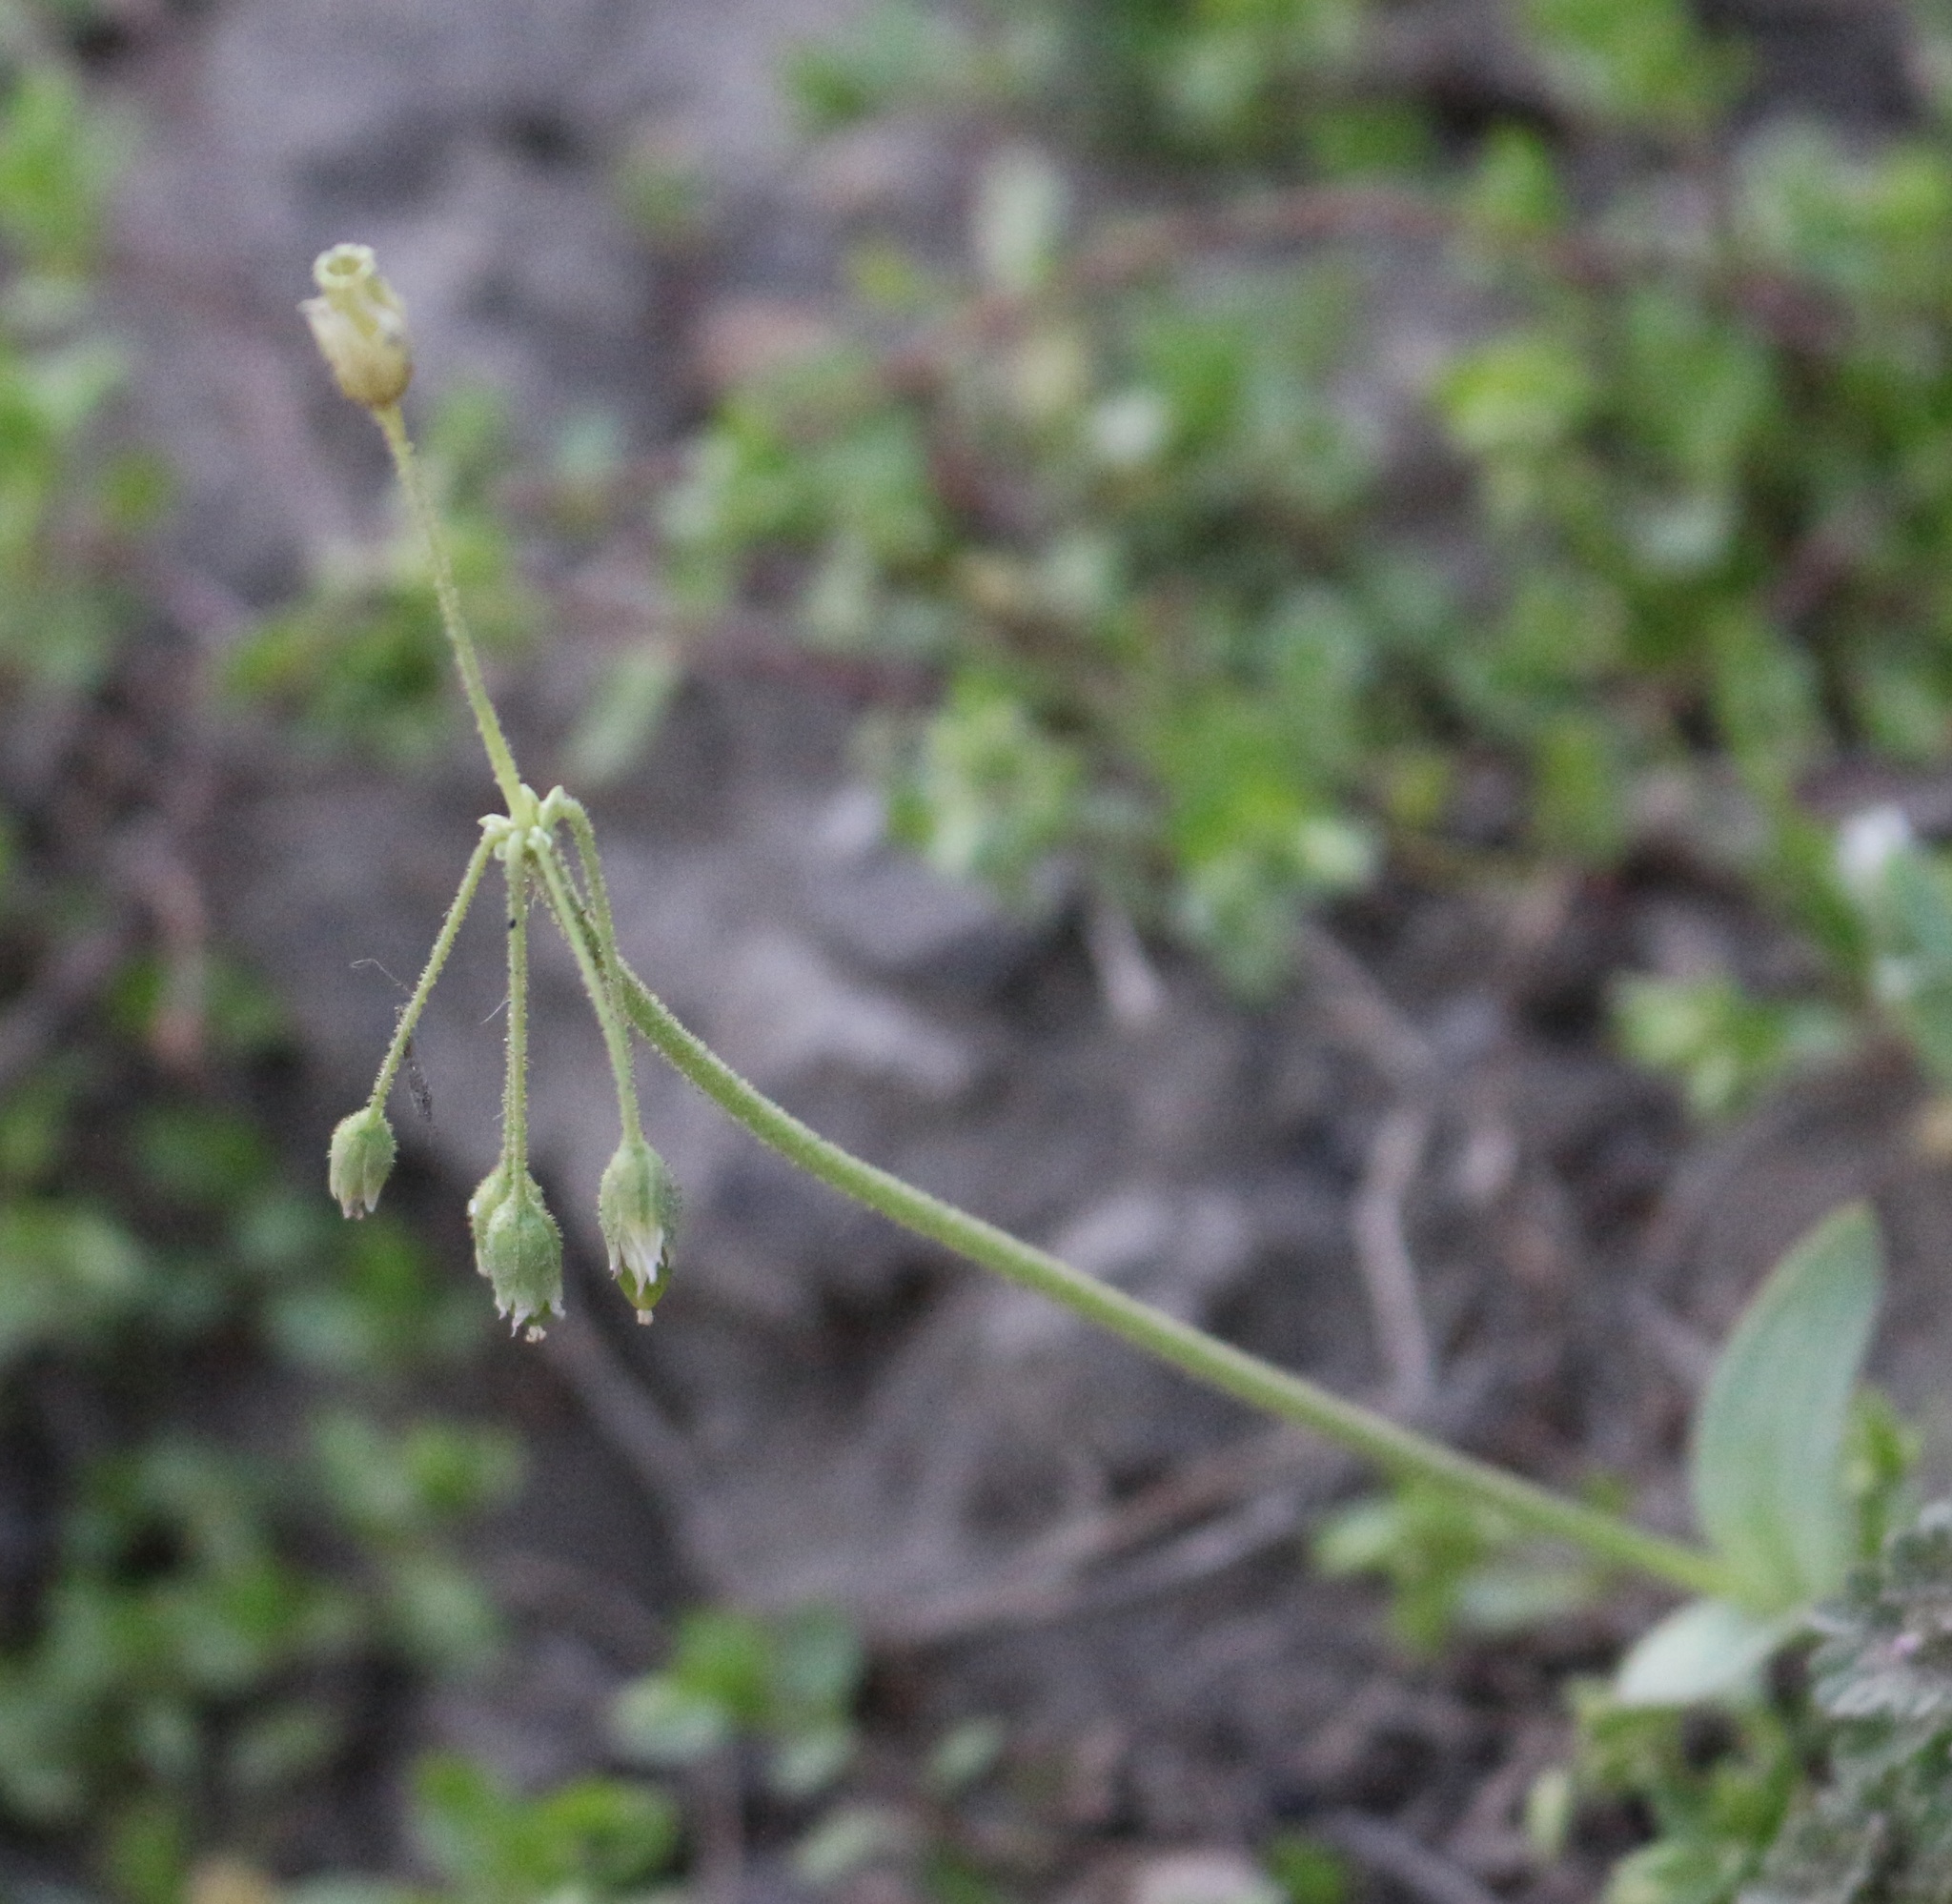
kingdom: Plantae
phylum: Tracheophyta
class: Magnoliopsida
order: Caryophyllales
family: Caryophyllaceae
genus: Holosteum
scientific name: Holosteum umbellatum
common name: Jagged chickweed
